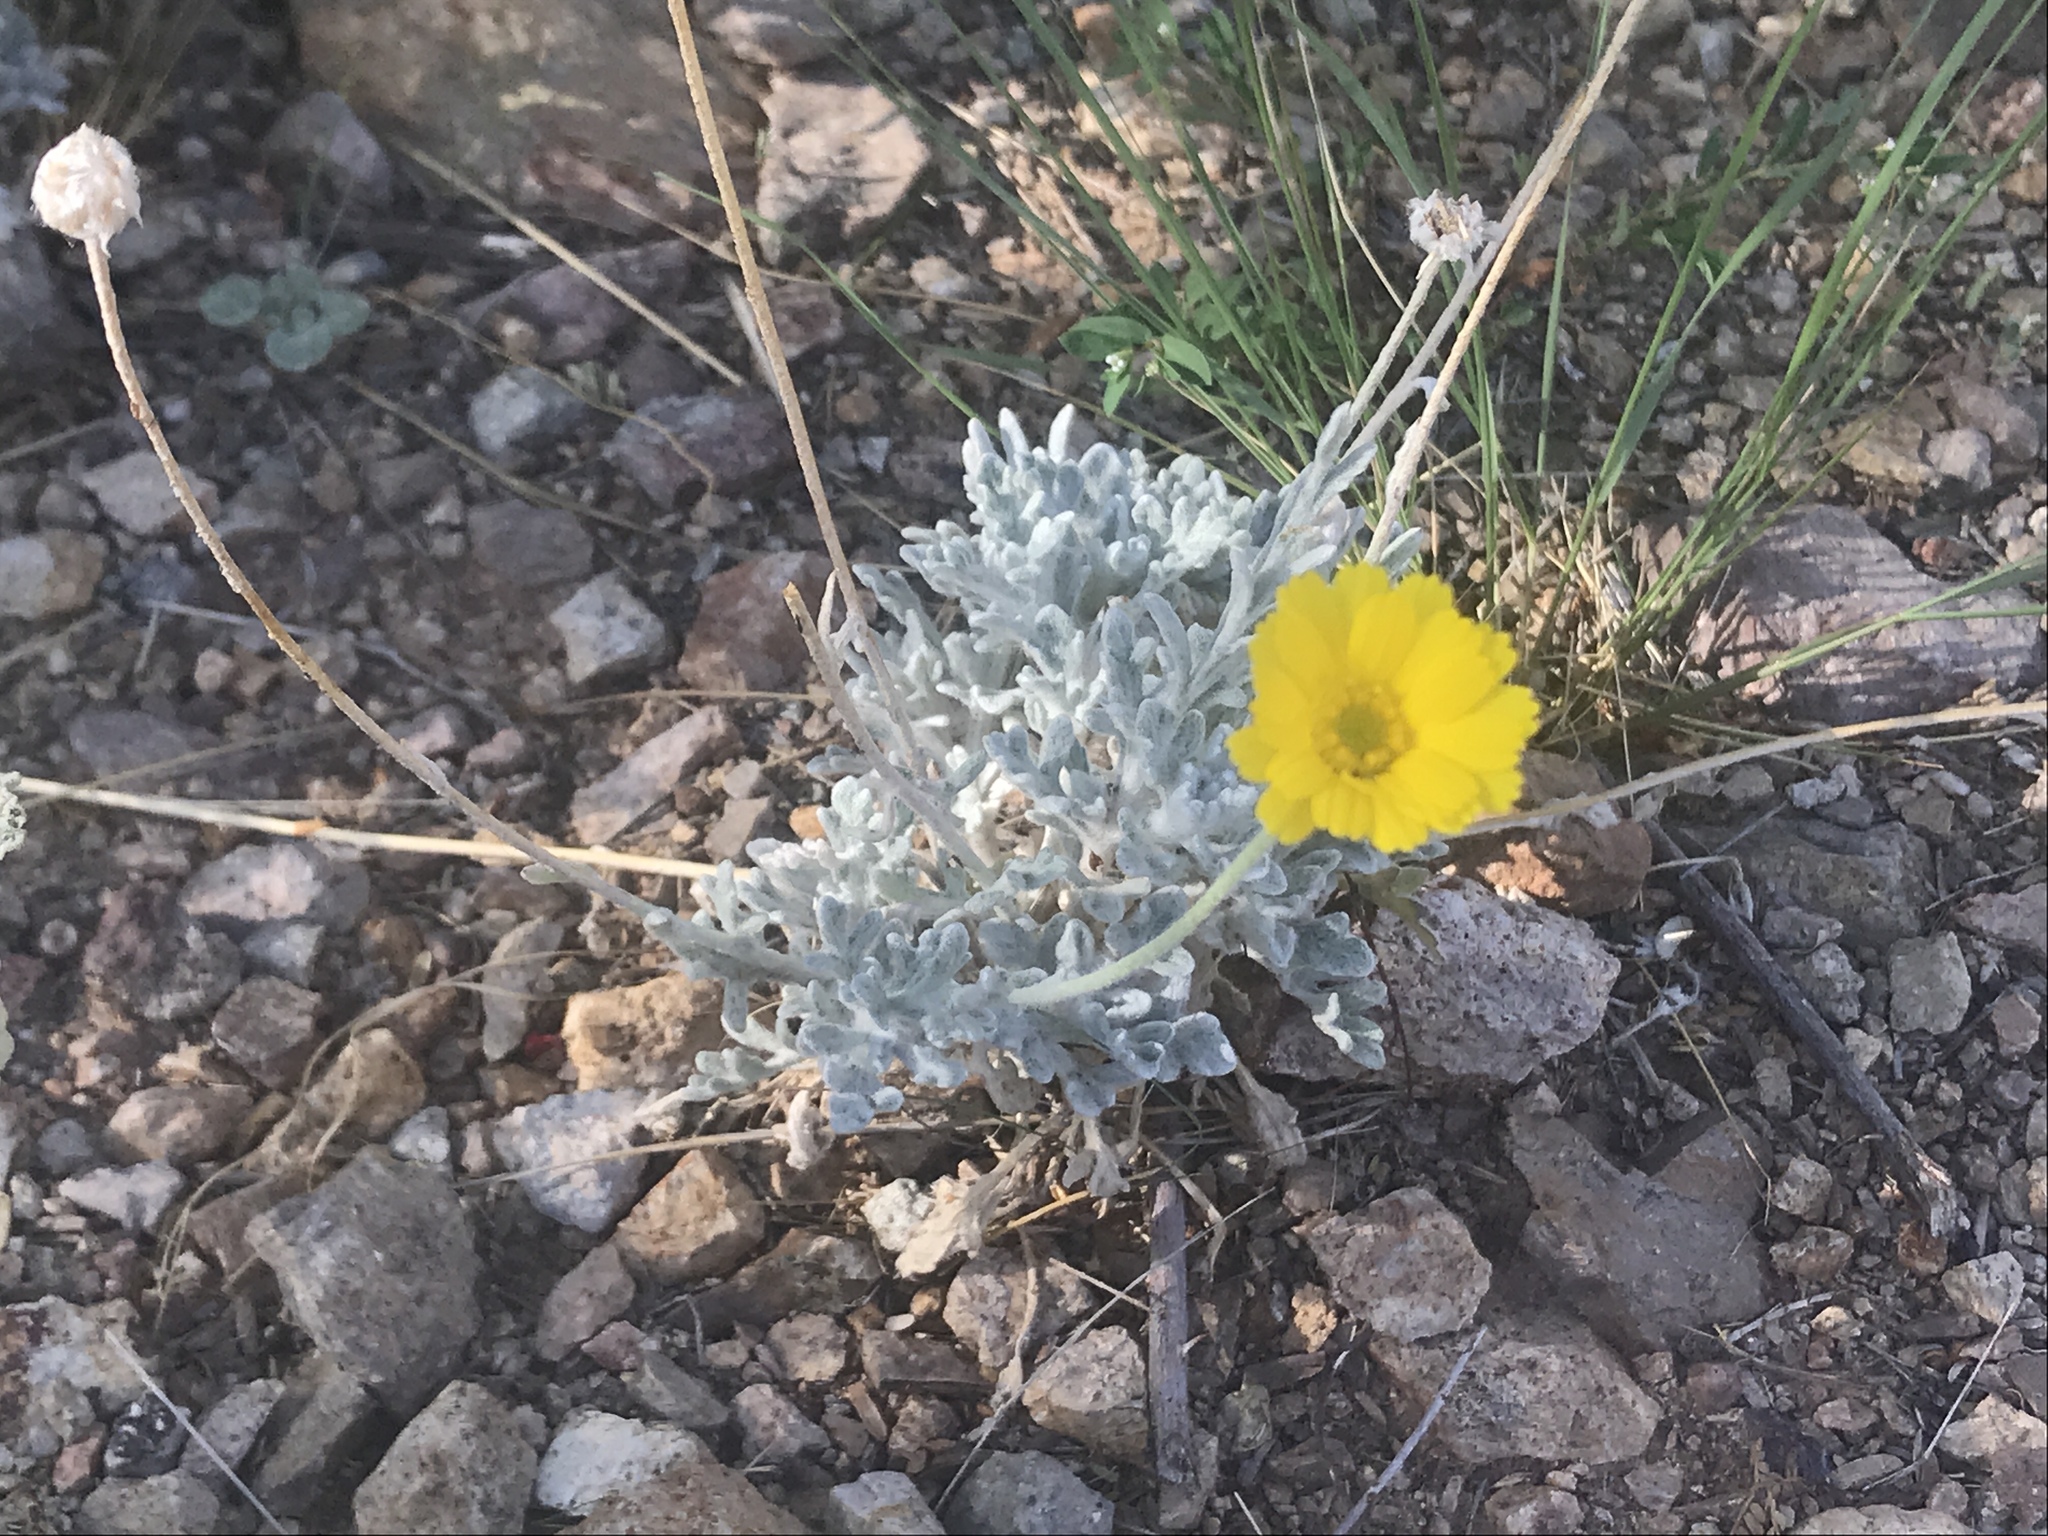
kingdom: Plantae
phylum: Tracheophyta
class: Magnoliopsida
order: Asterales
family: Asteraceae
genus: Baileya
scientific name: Baileya multiradiata
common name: Desert-marigold
